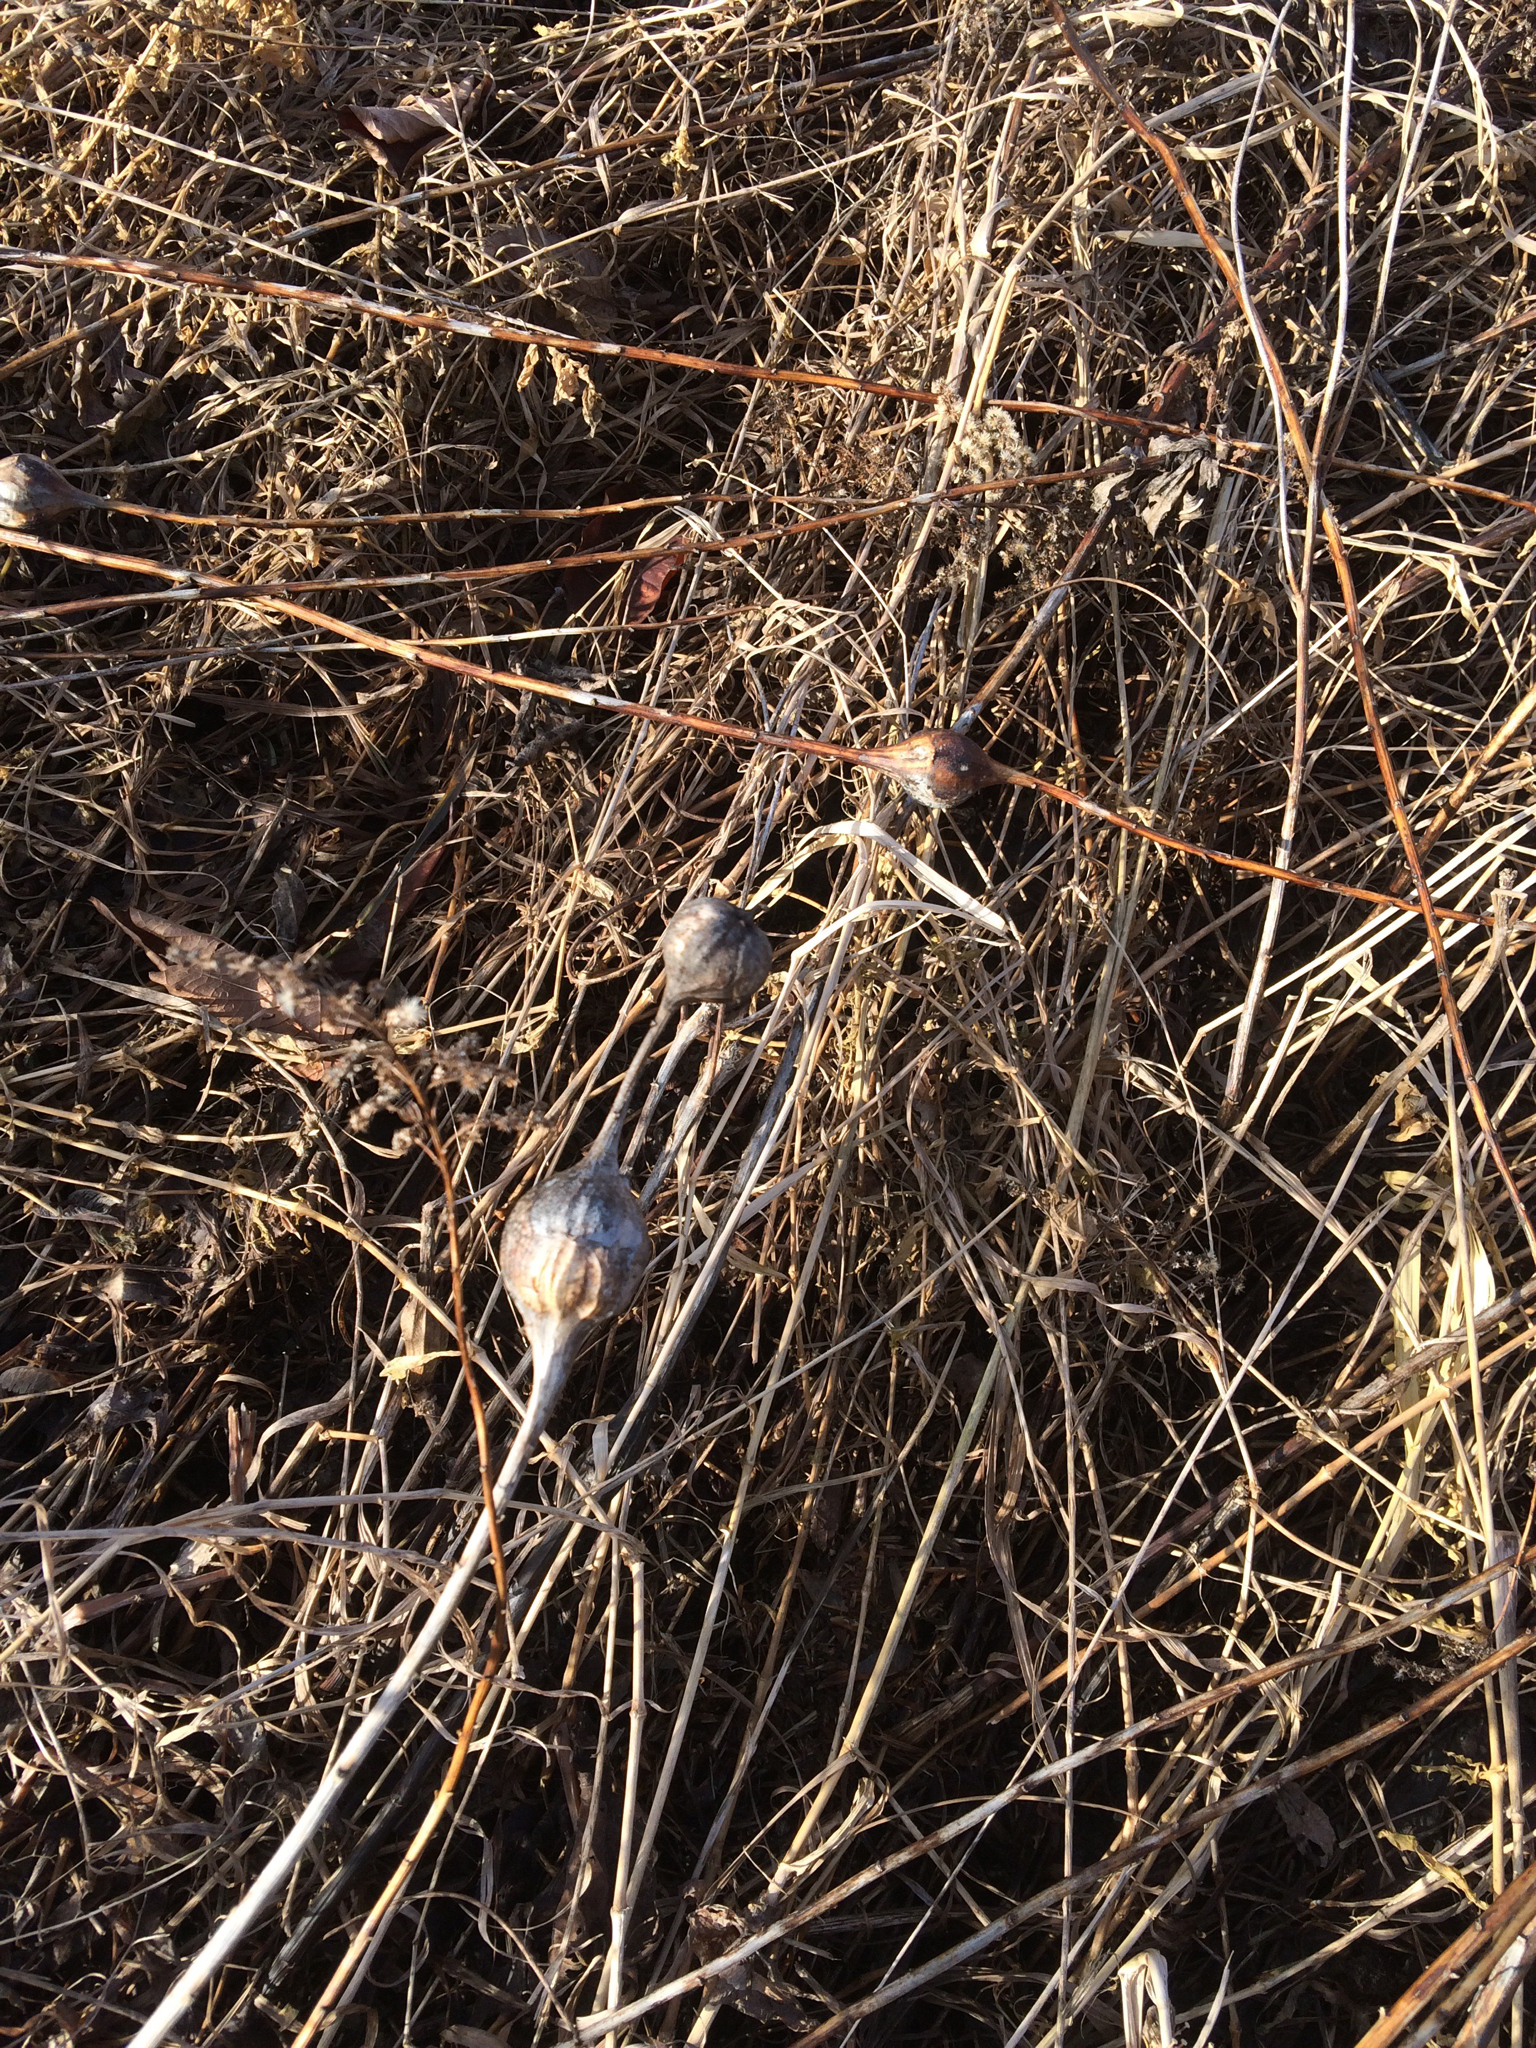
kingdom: Animalia
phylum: Arthropoda
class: Insecta
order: Diptera
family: Tephritidae
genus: Eurosta
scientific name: Eurosta solidaginis
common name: Goldenrod gall fly
